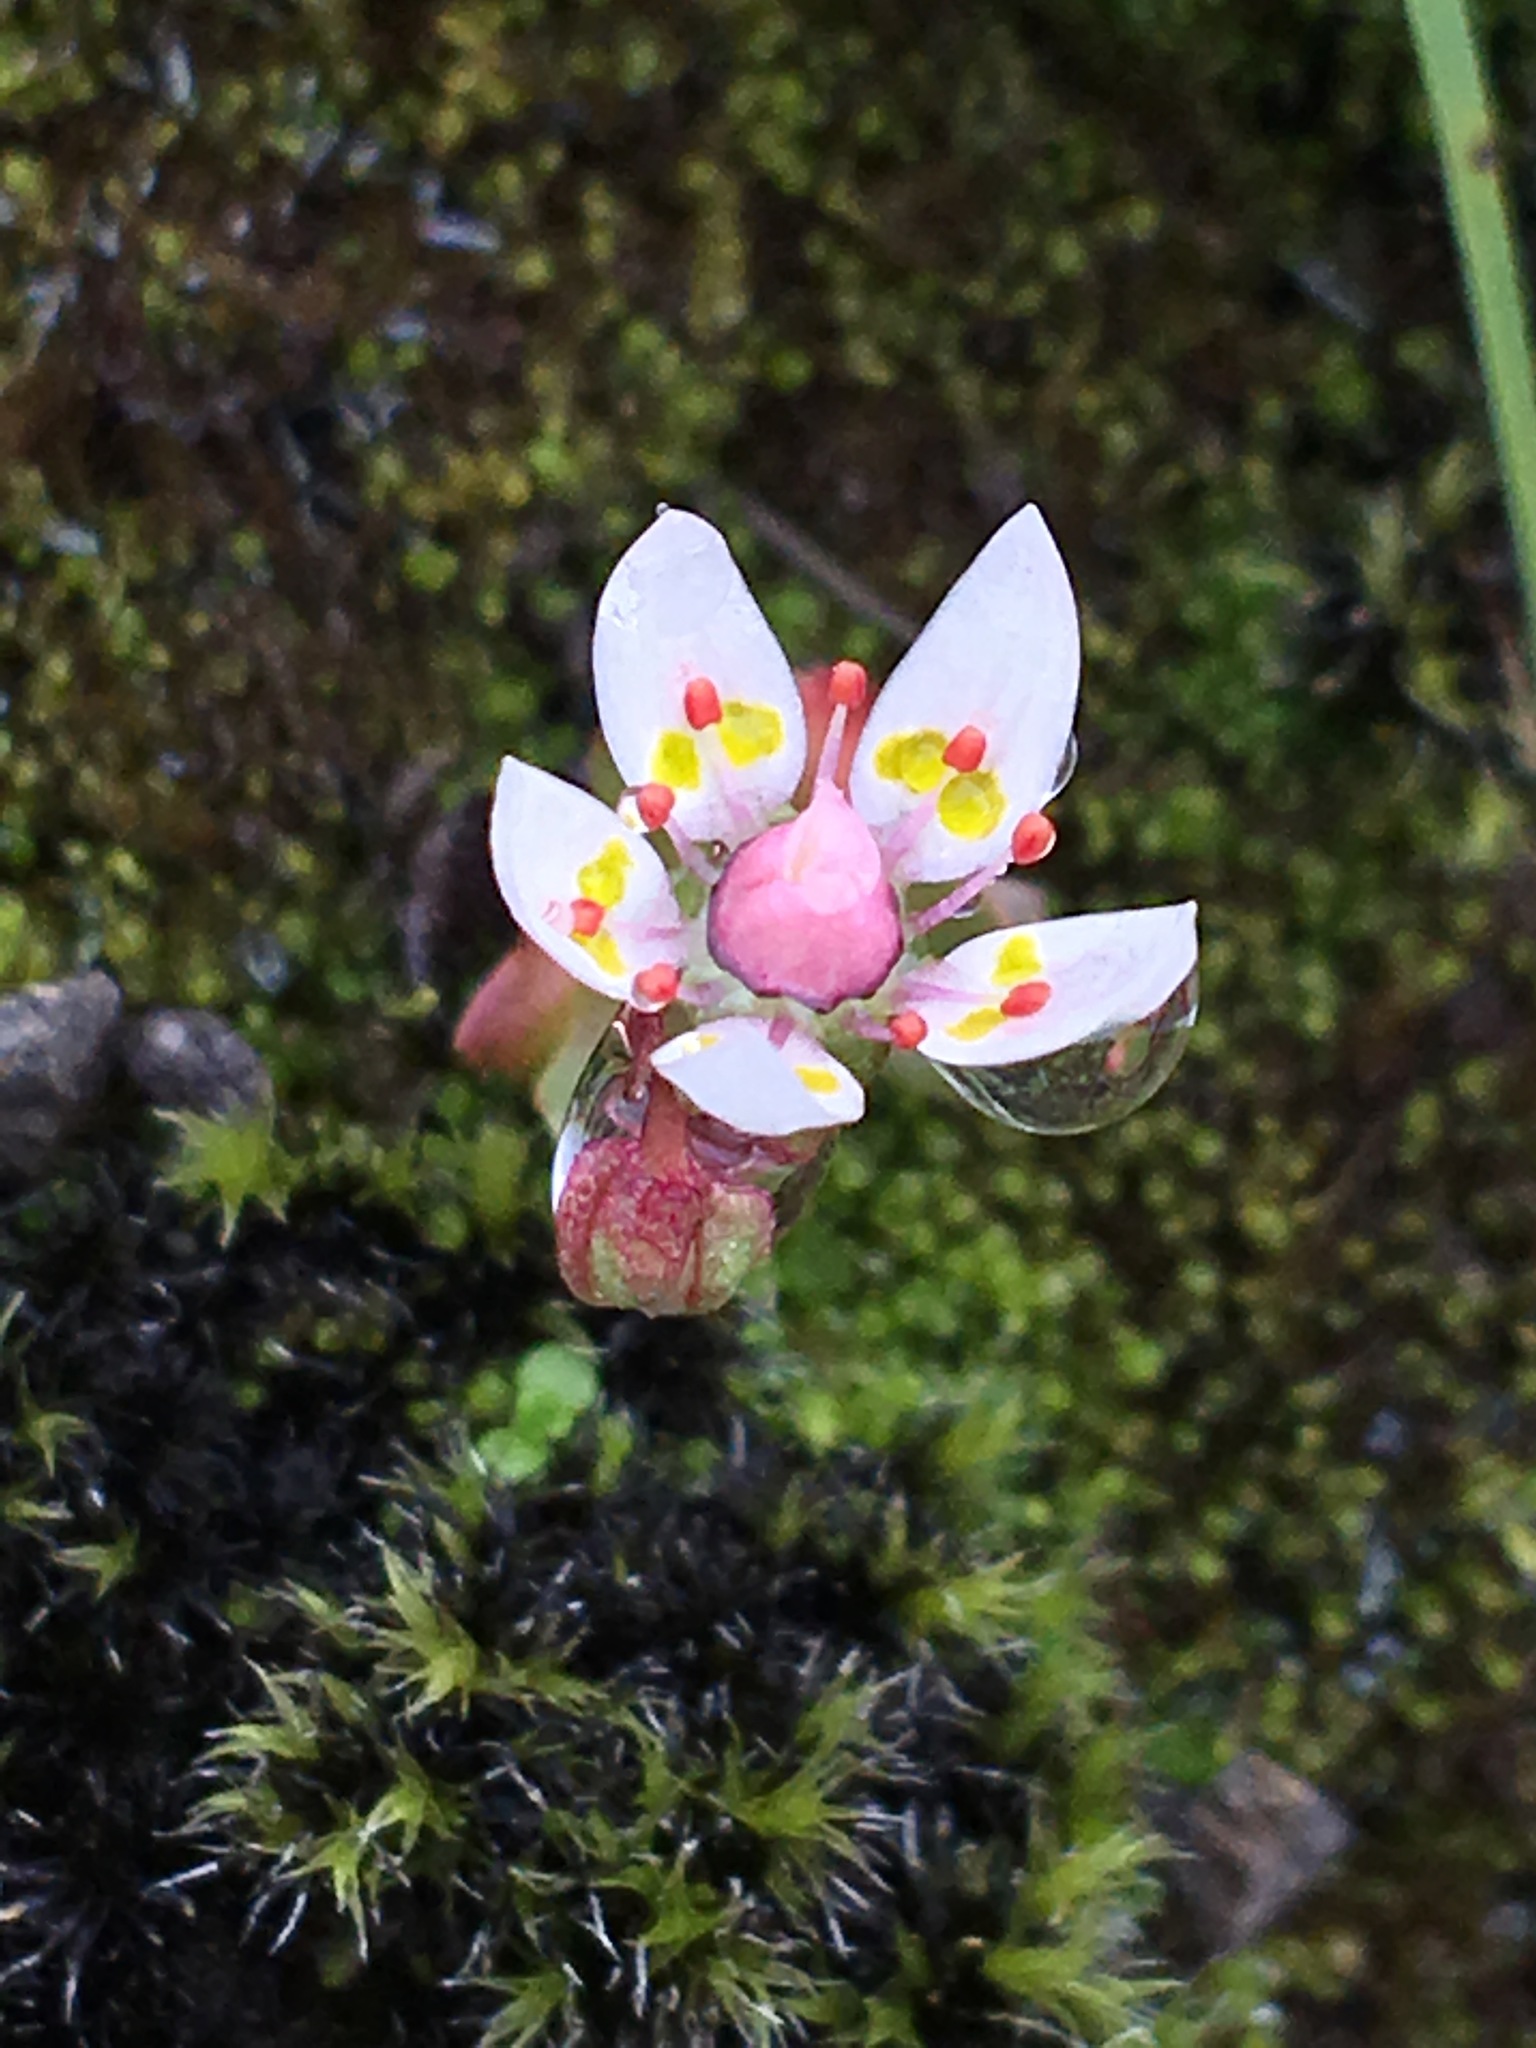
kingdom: Plantae
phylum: Tracheophyta
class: Magnoliopsida
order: Saxifragales
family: Saxifragaceae
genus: Micranthes
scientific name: Micranthes stellaris
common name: Starry saxifrage
